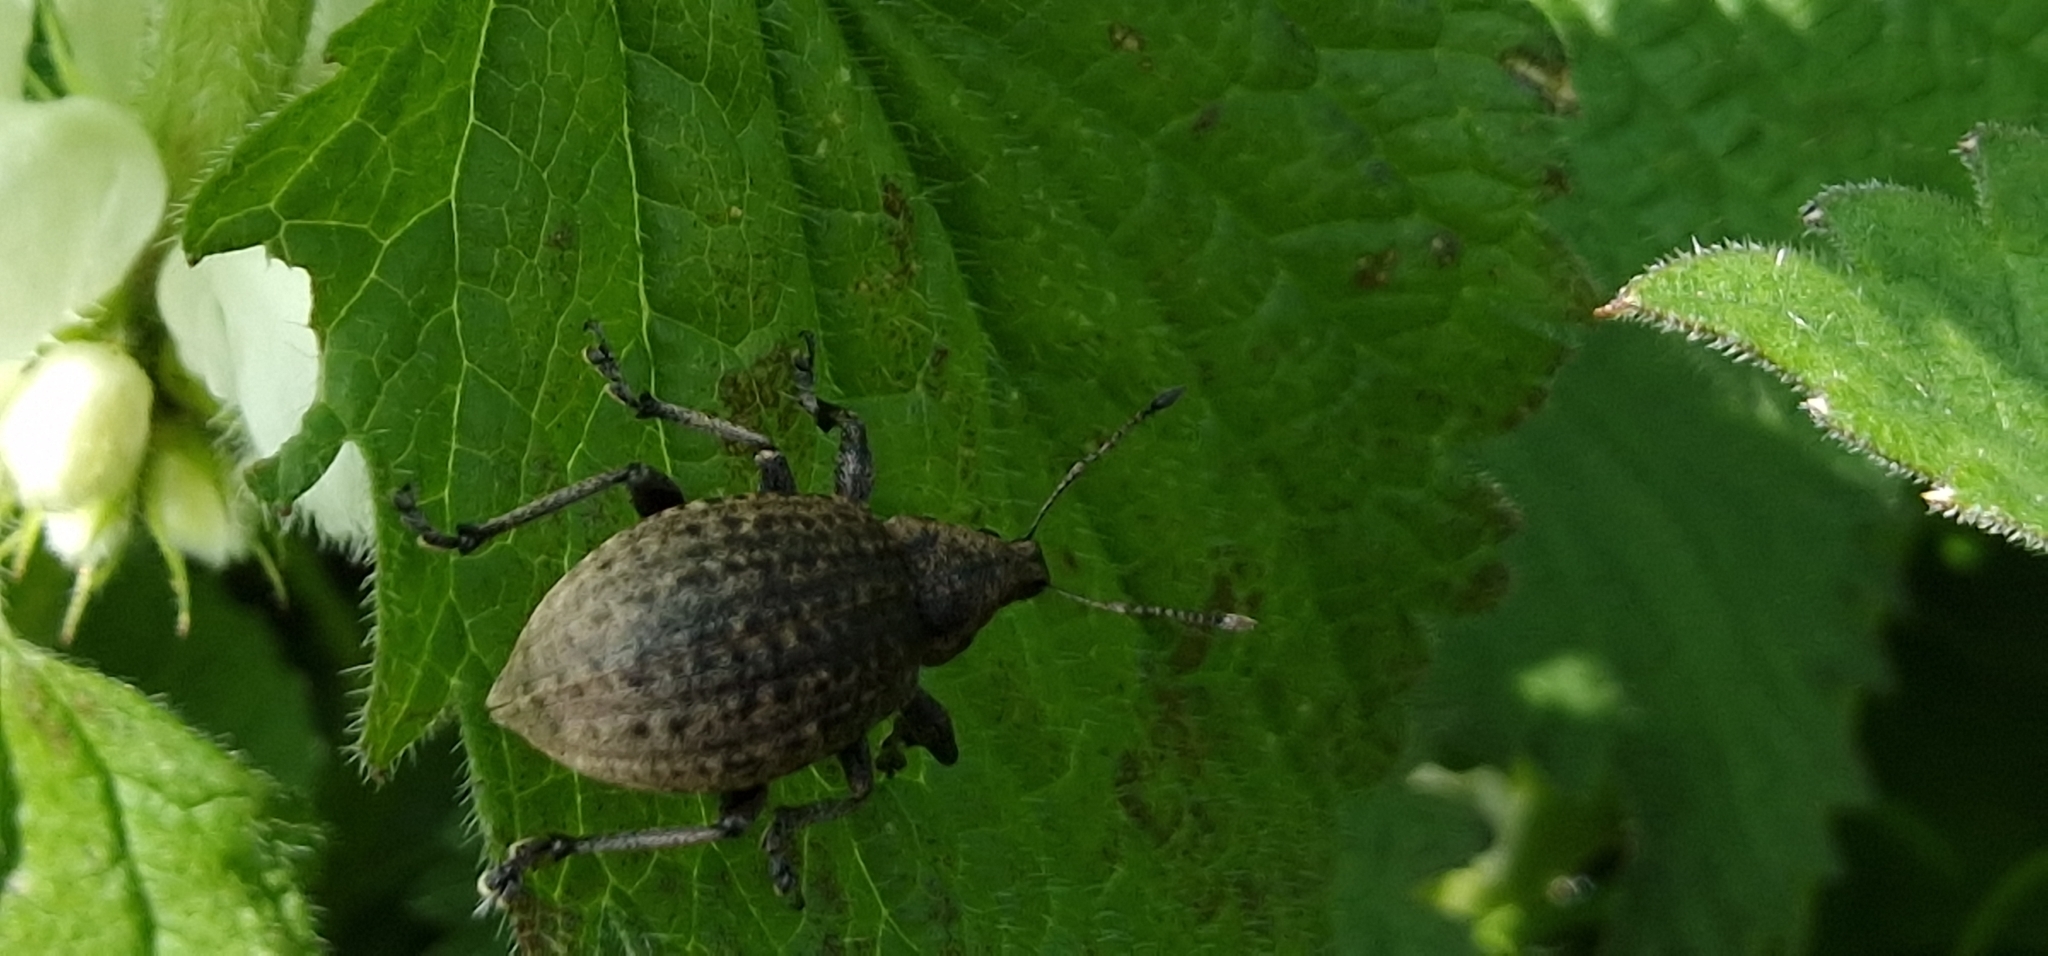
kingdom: Animalia
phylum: Arthropoda
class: Insecta
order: Coleoptera
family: Curculionidae
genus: Liophloeus
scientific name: Liophloeus tessulatus
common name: Weevil
